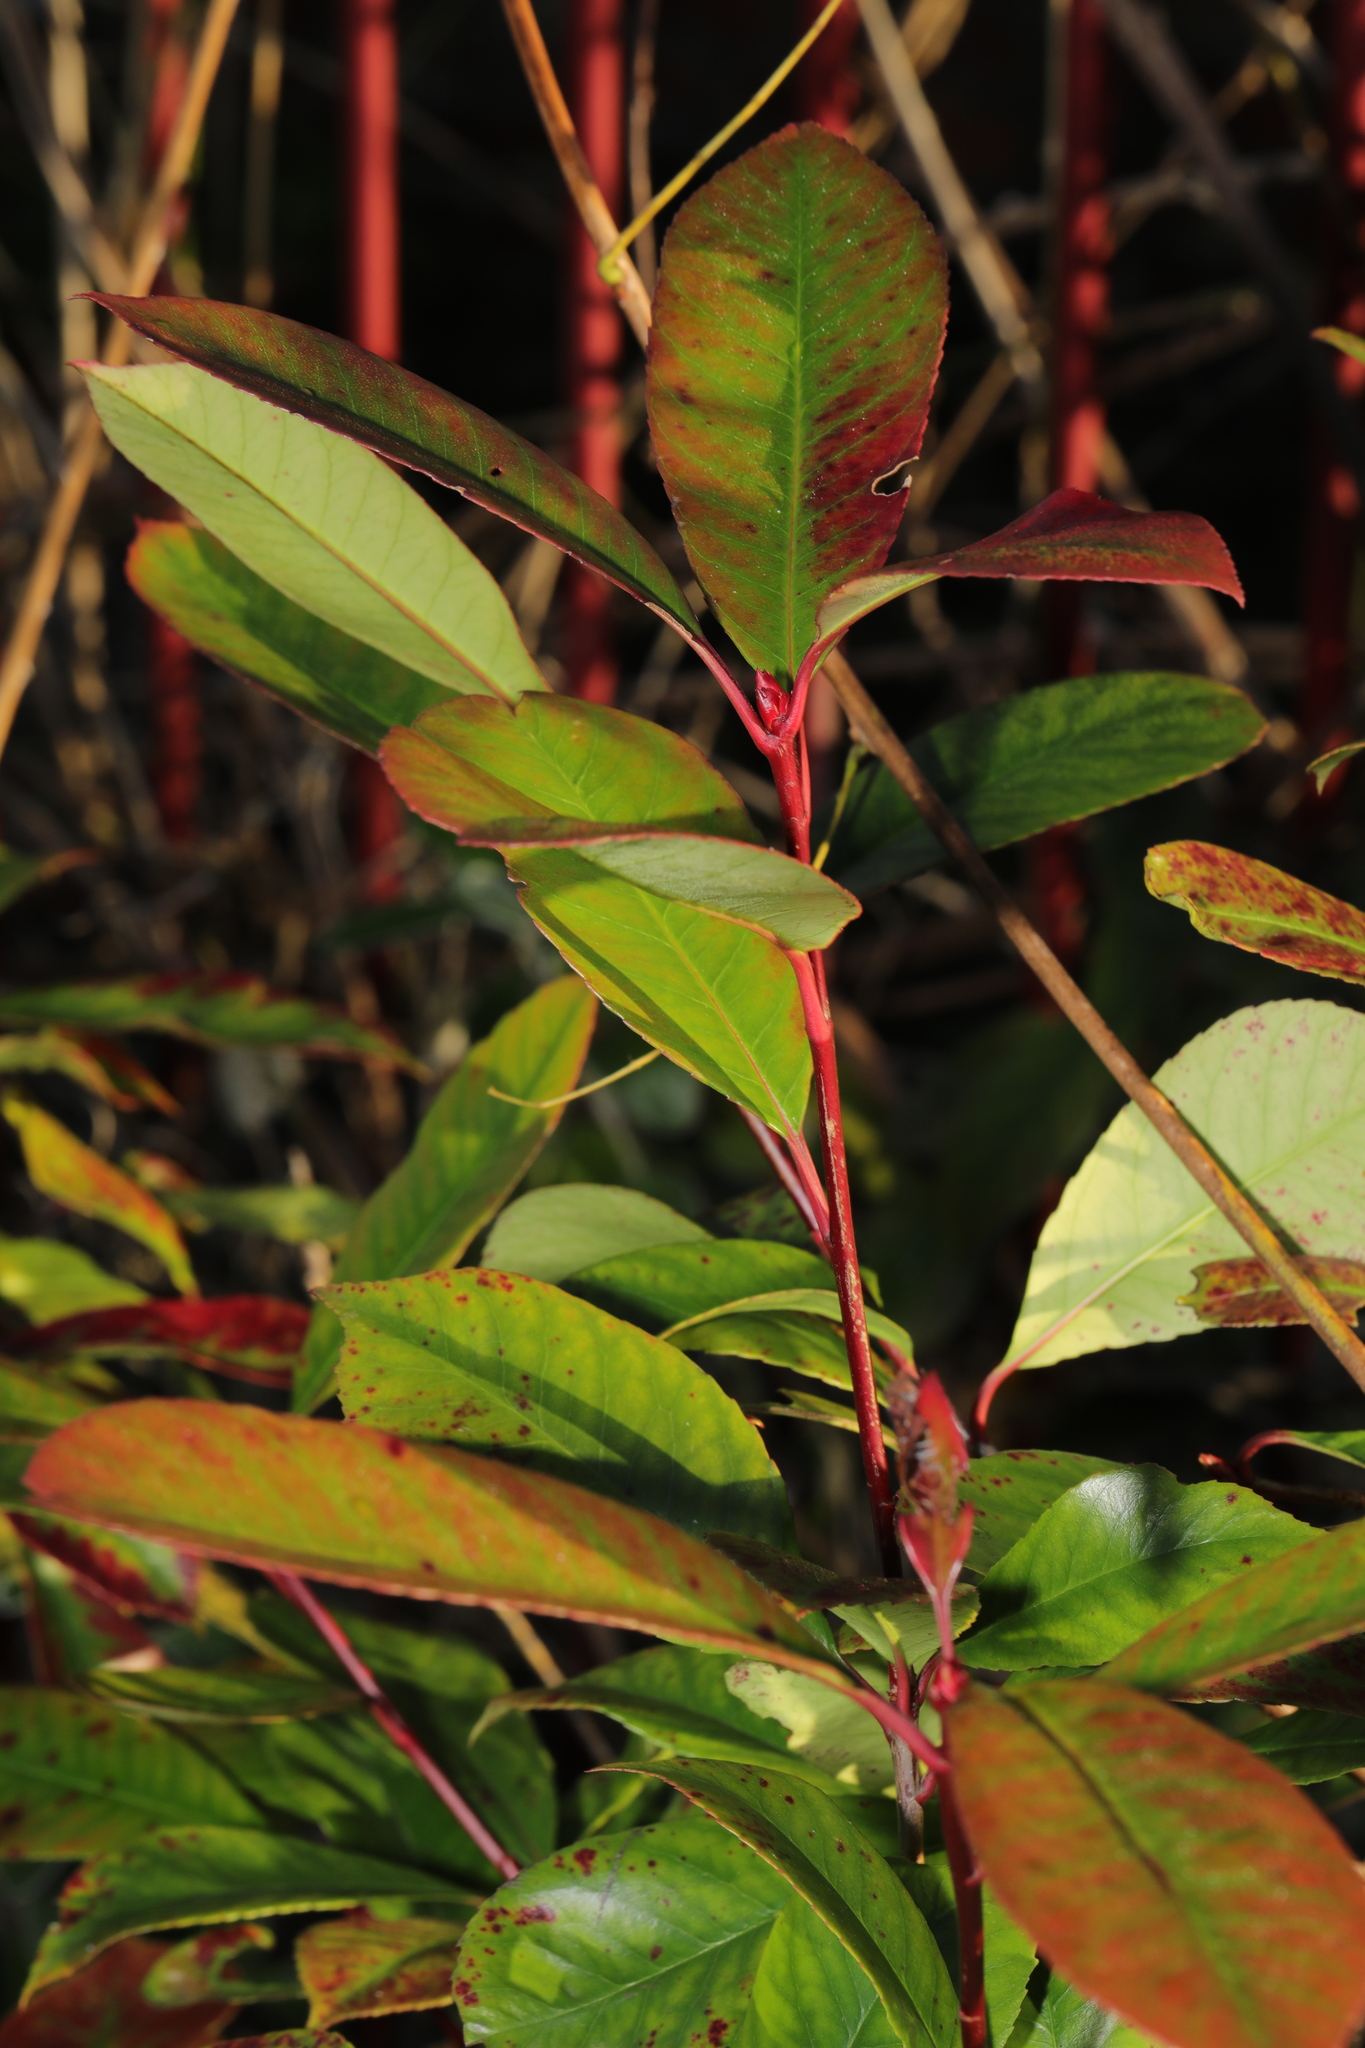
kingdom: Plantae
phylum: Tracheophyta
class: Magnoliopsida
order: Rosales
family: Rosaceae
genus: Photinia
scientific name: Photinia fraseri
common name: Fraser's photinia
